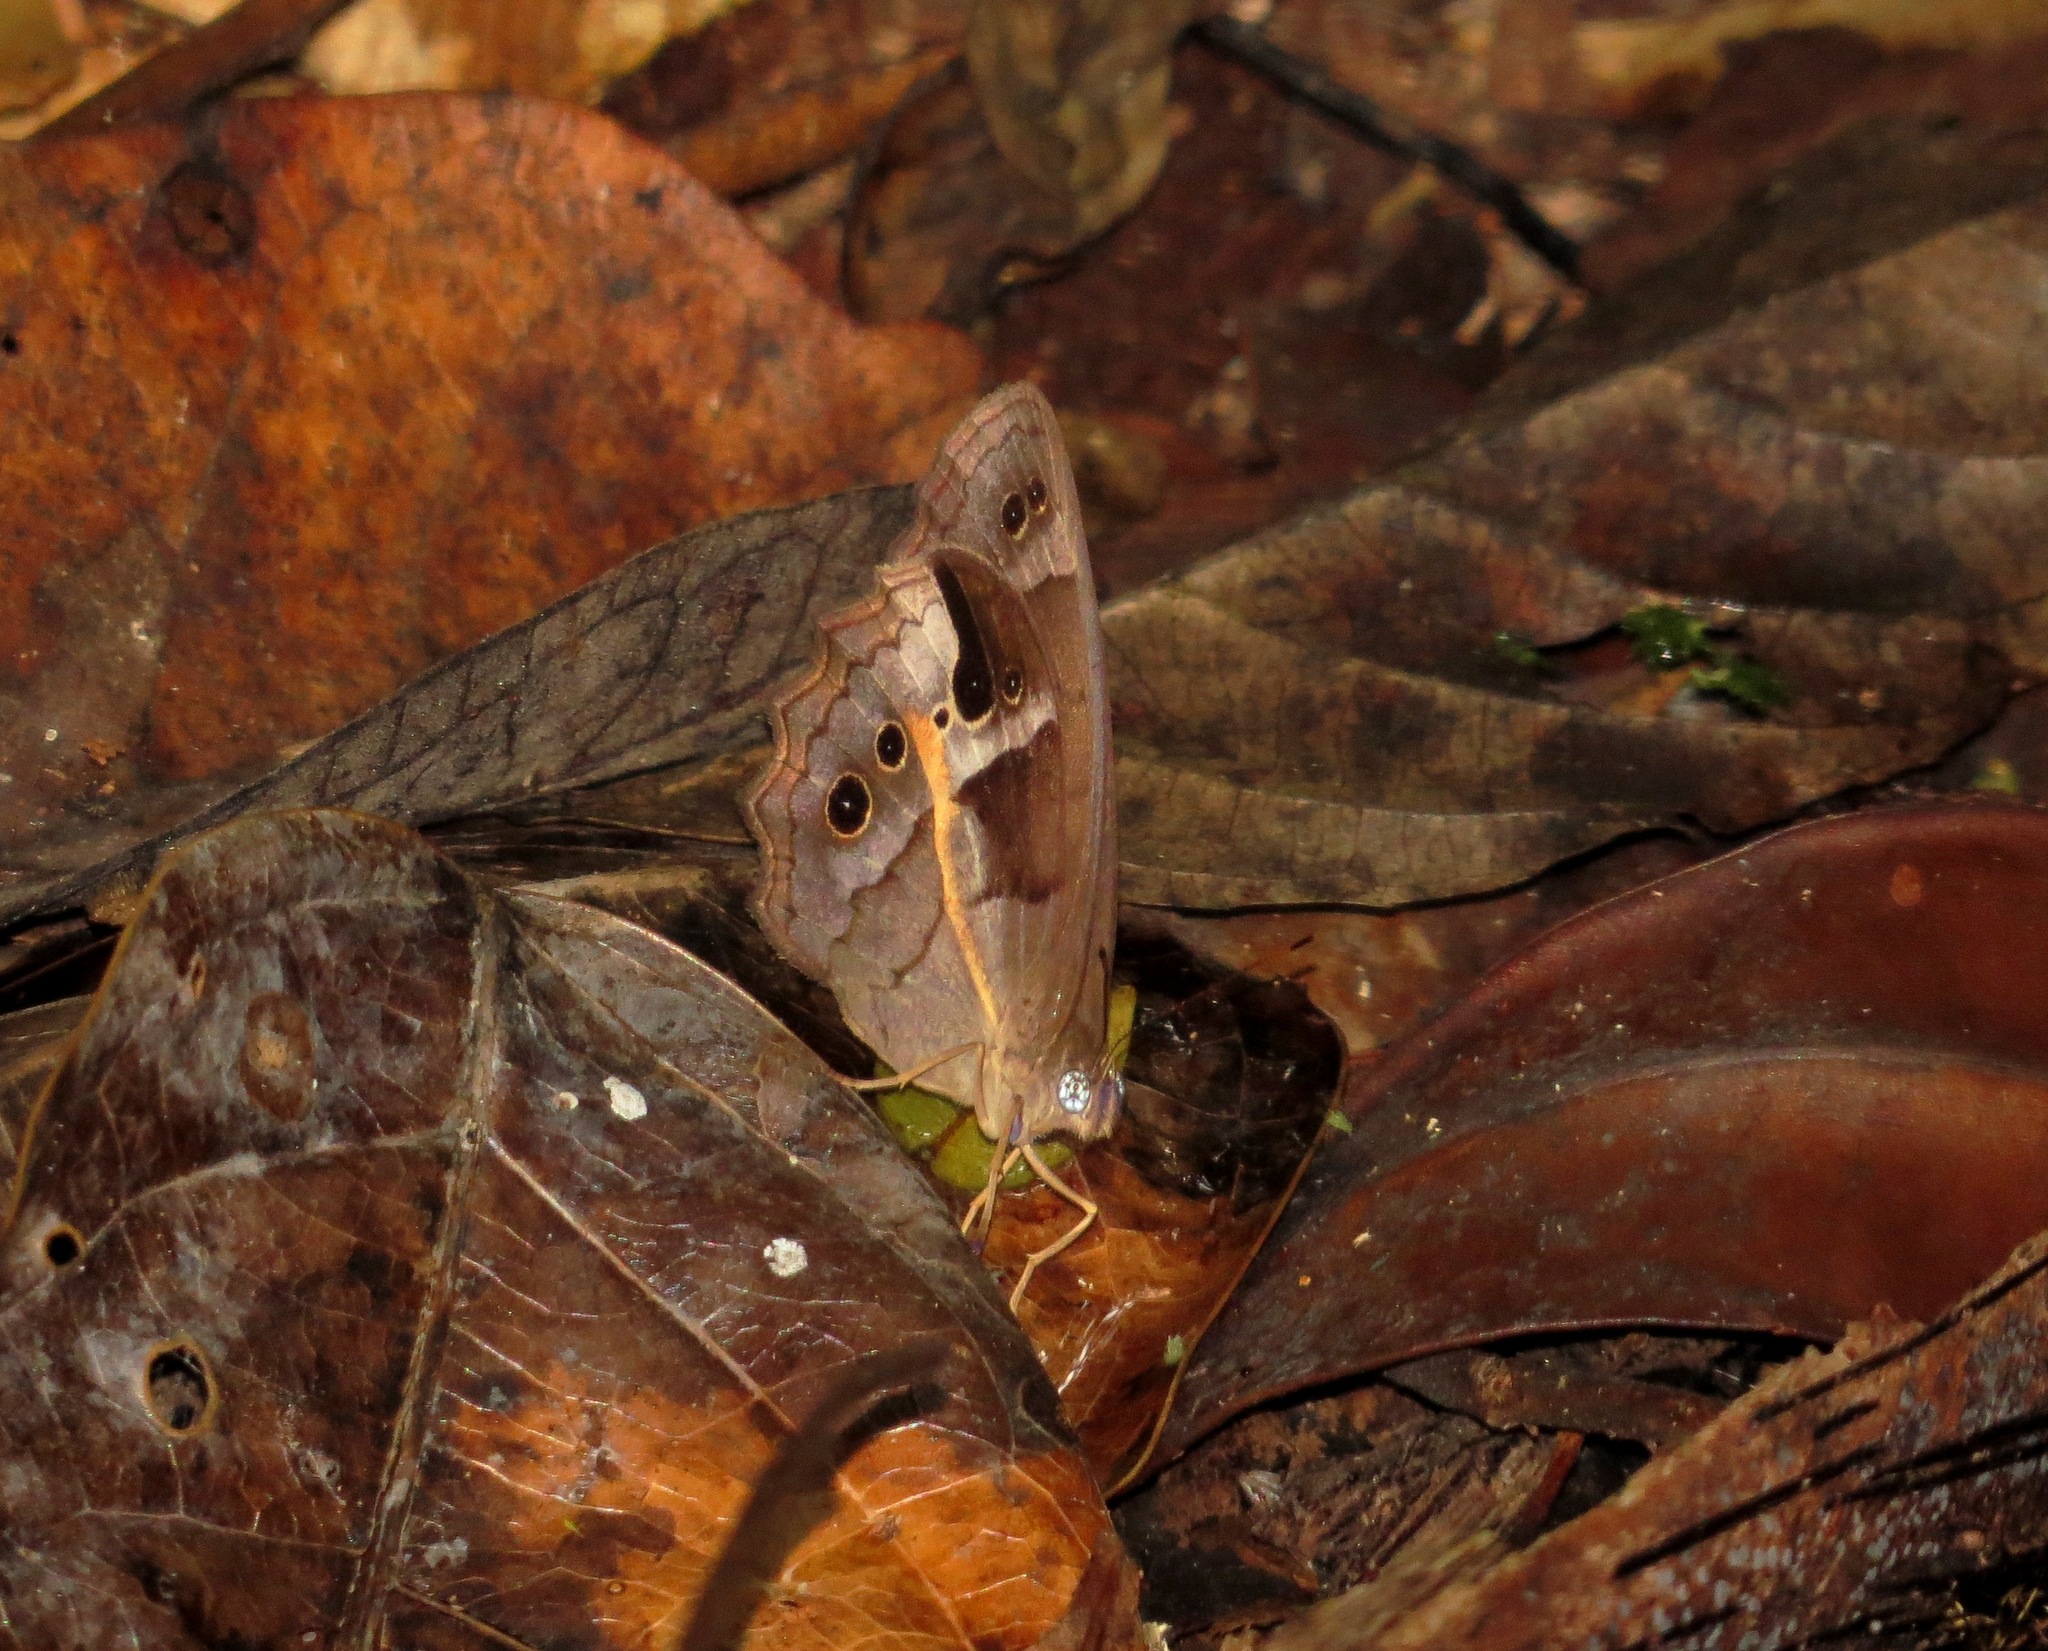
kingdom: Animalia
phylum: Arthropoda
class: Insecta
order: Lepidoptera
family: Nymphalidae
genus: Posttaygetis
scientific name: Posttaygetis penelea
